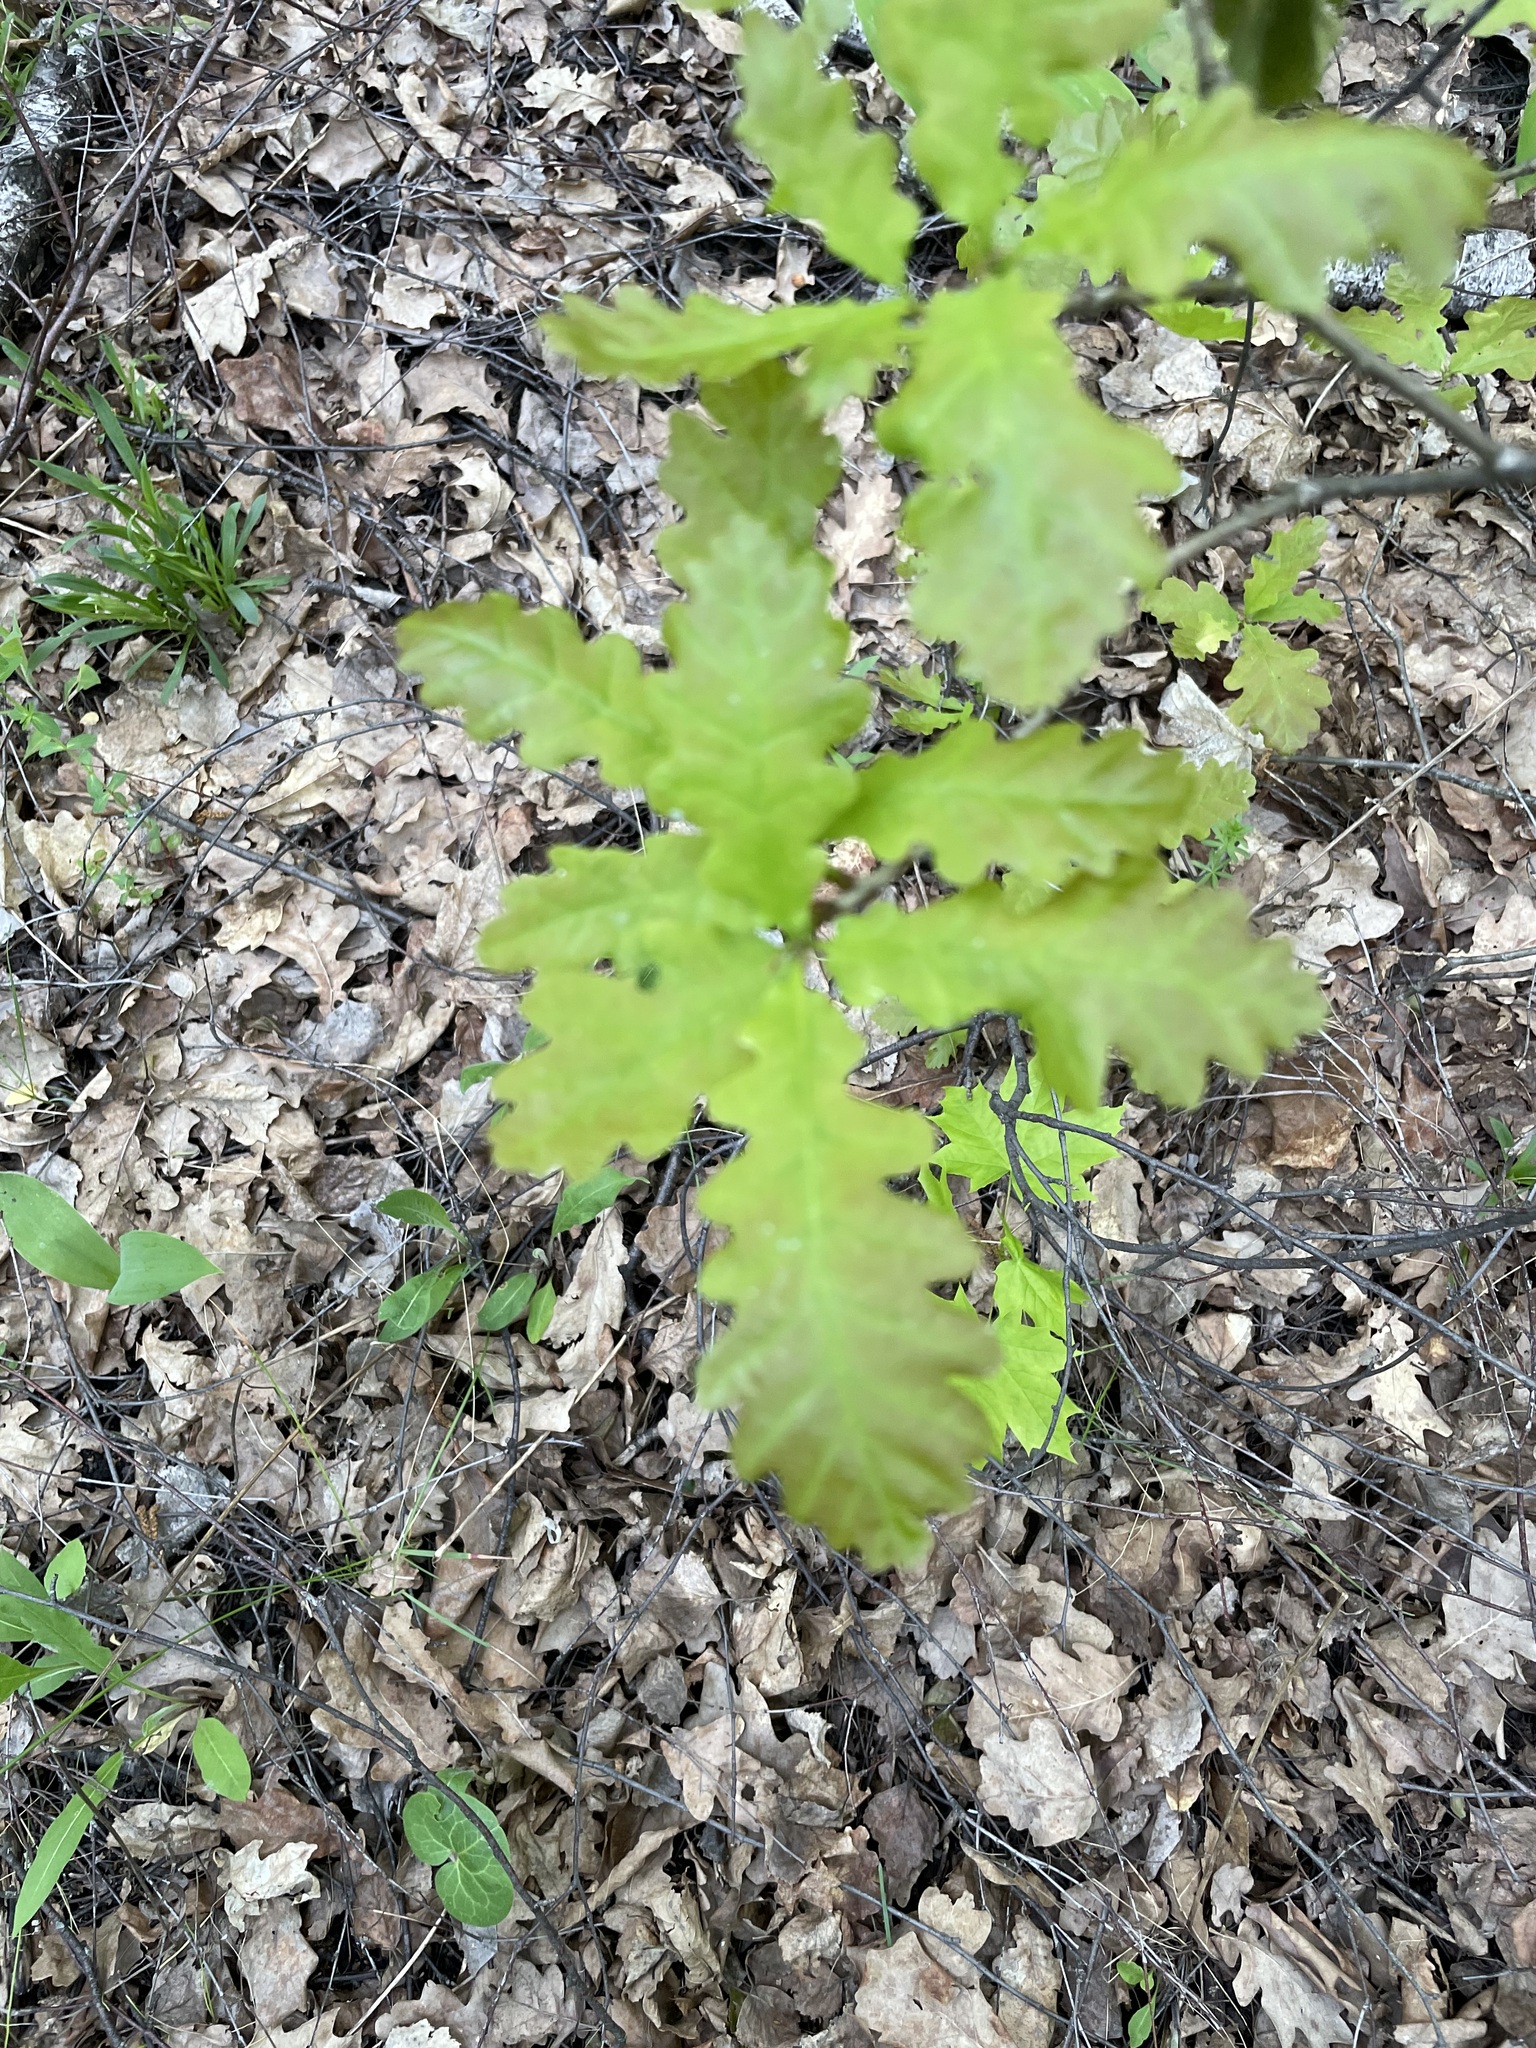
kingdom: Plantae
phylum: Tracheophyta
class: Magnoliopsida
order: Fagales
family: Fagaceae
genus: Quercus
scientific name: Quercus robur
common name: Pedunculate oak
